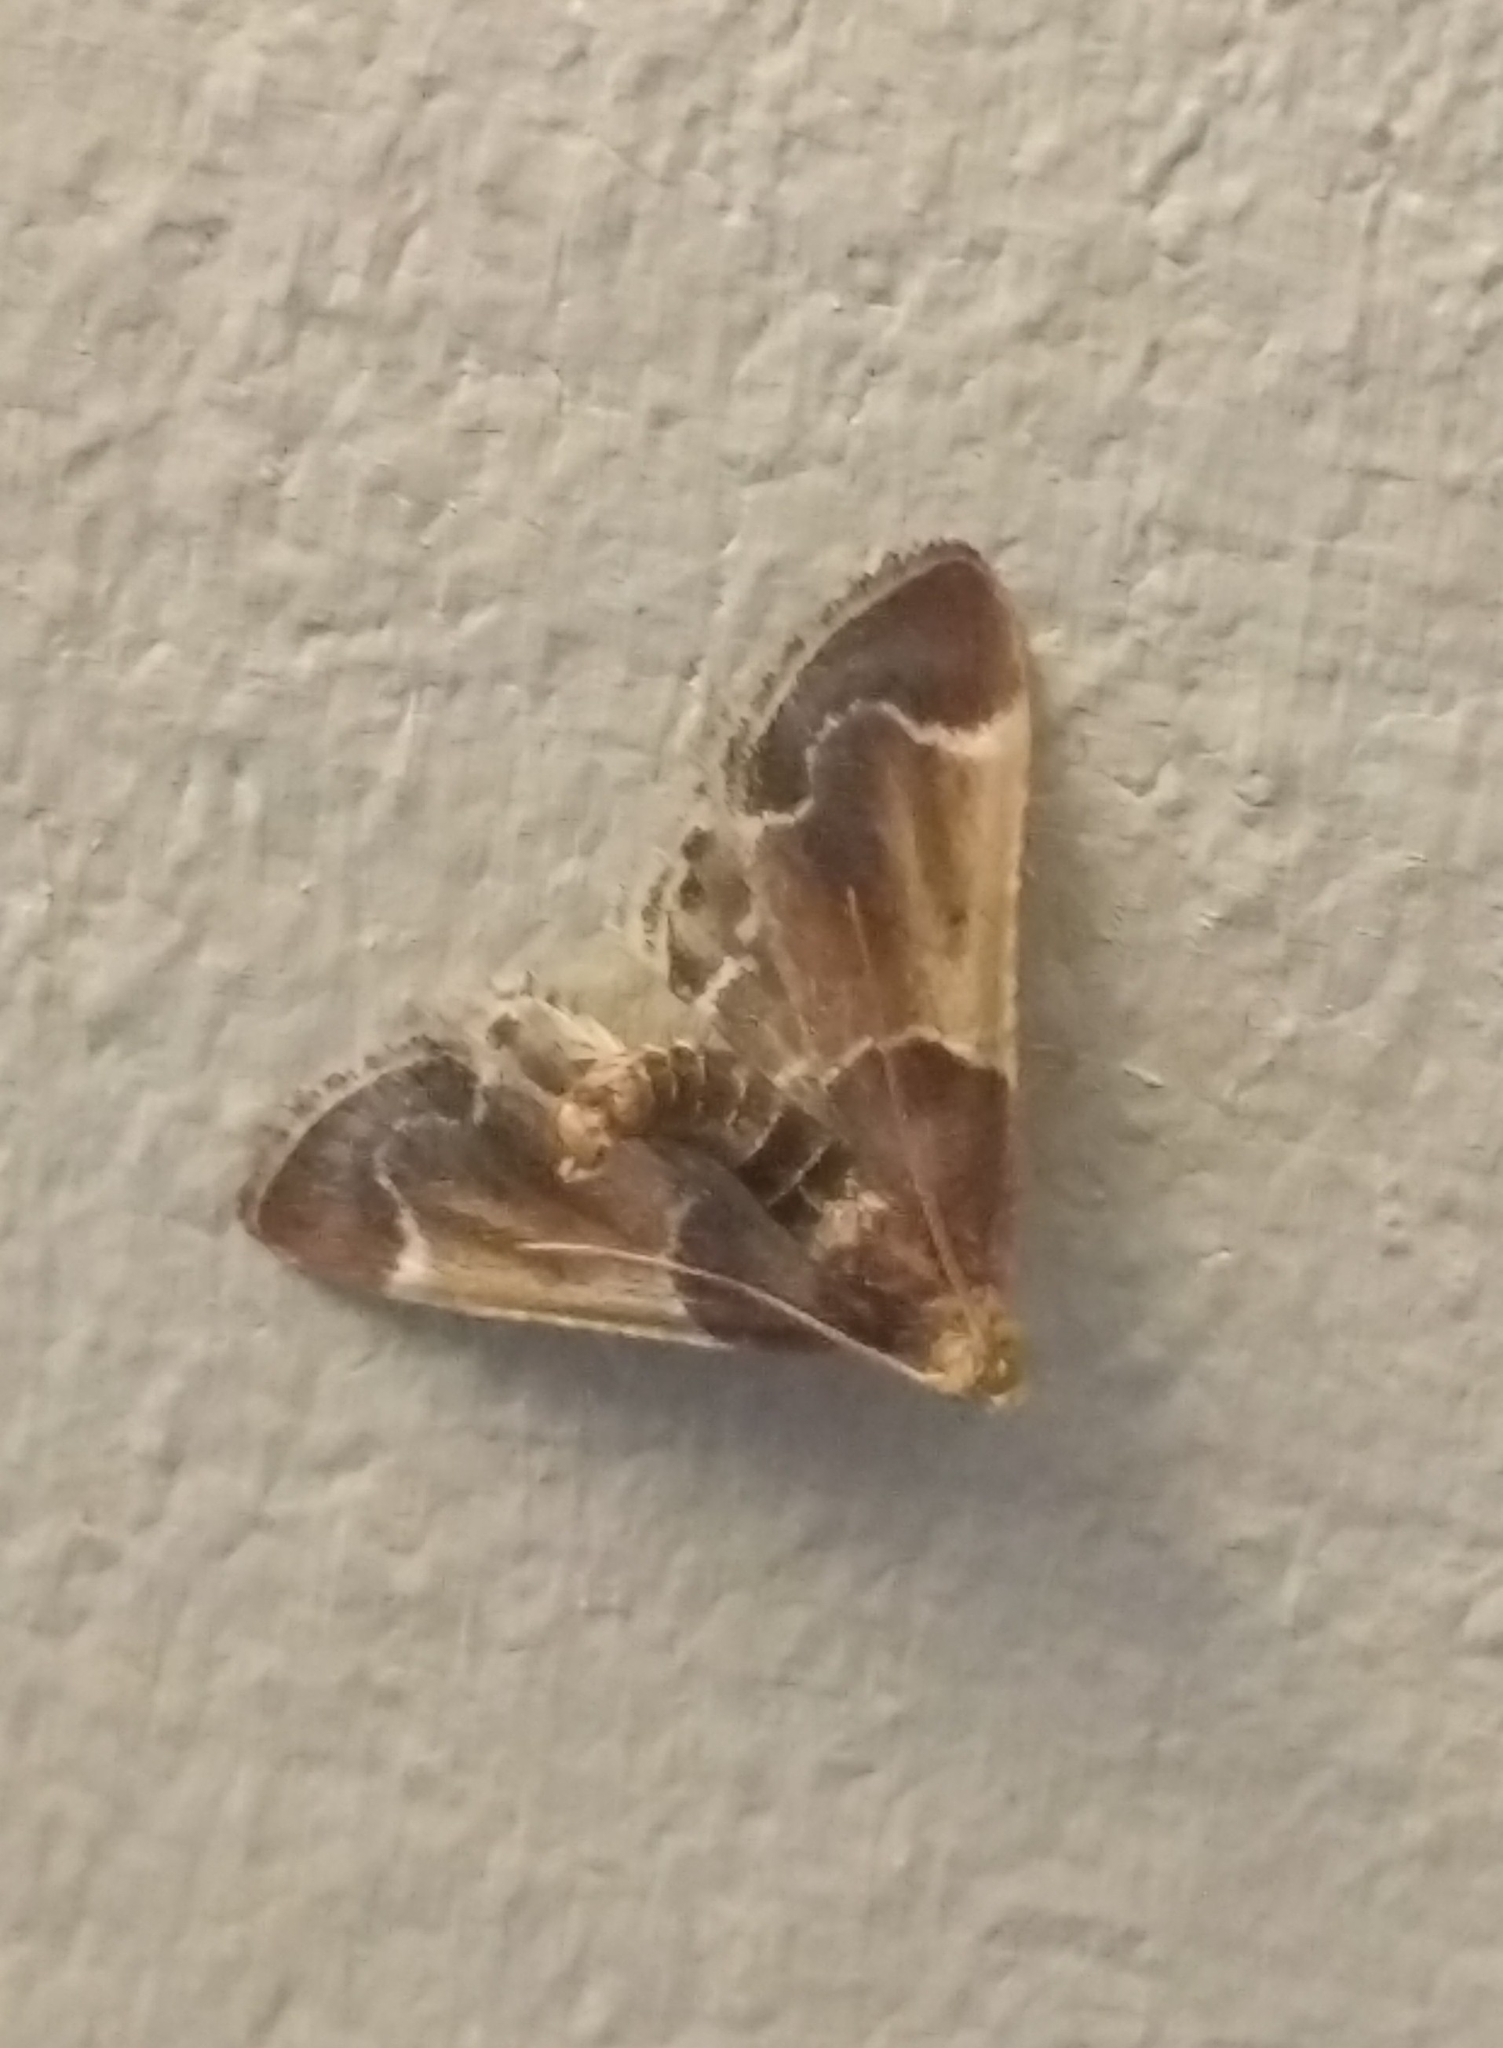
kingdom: Animalia
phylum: Arthropoda
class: Insecta
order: Lepidoptera
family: Pyralidae
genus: Pyralis
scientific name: Pyralis farinalis
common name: Meal moth
